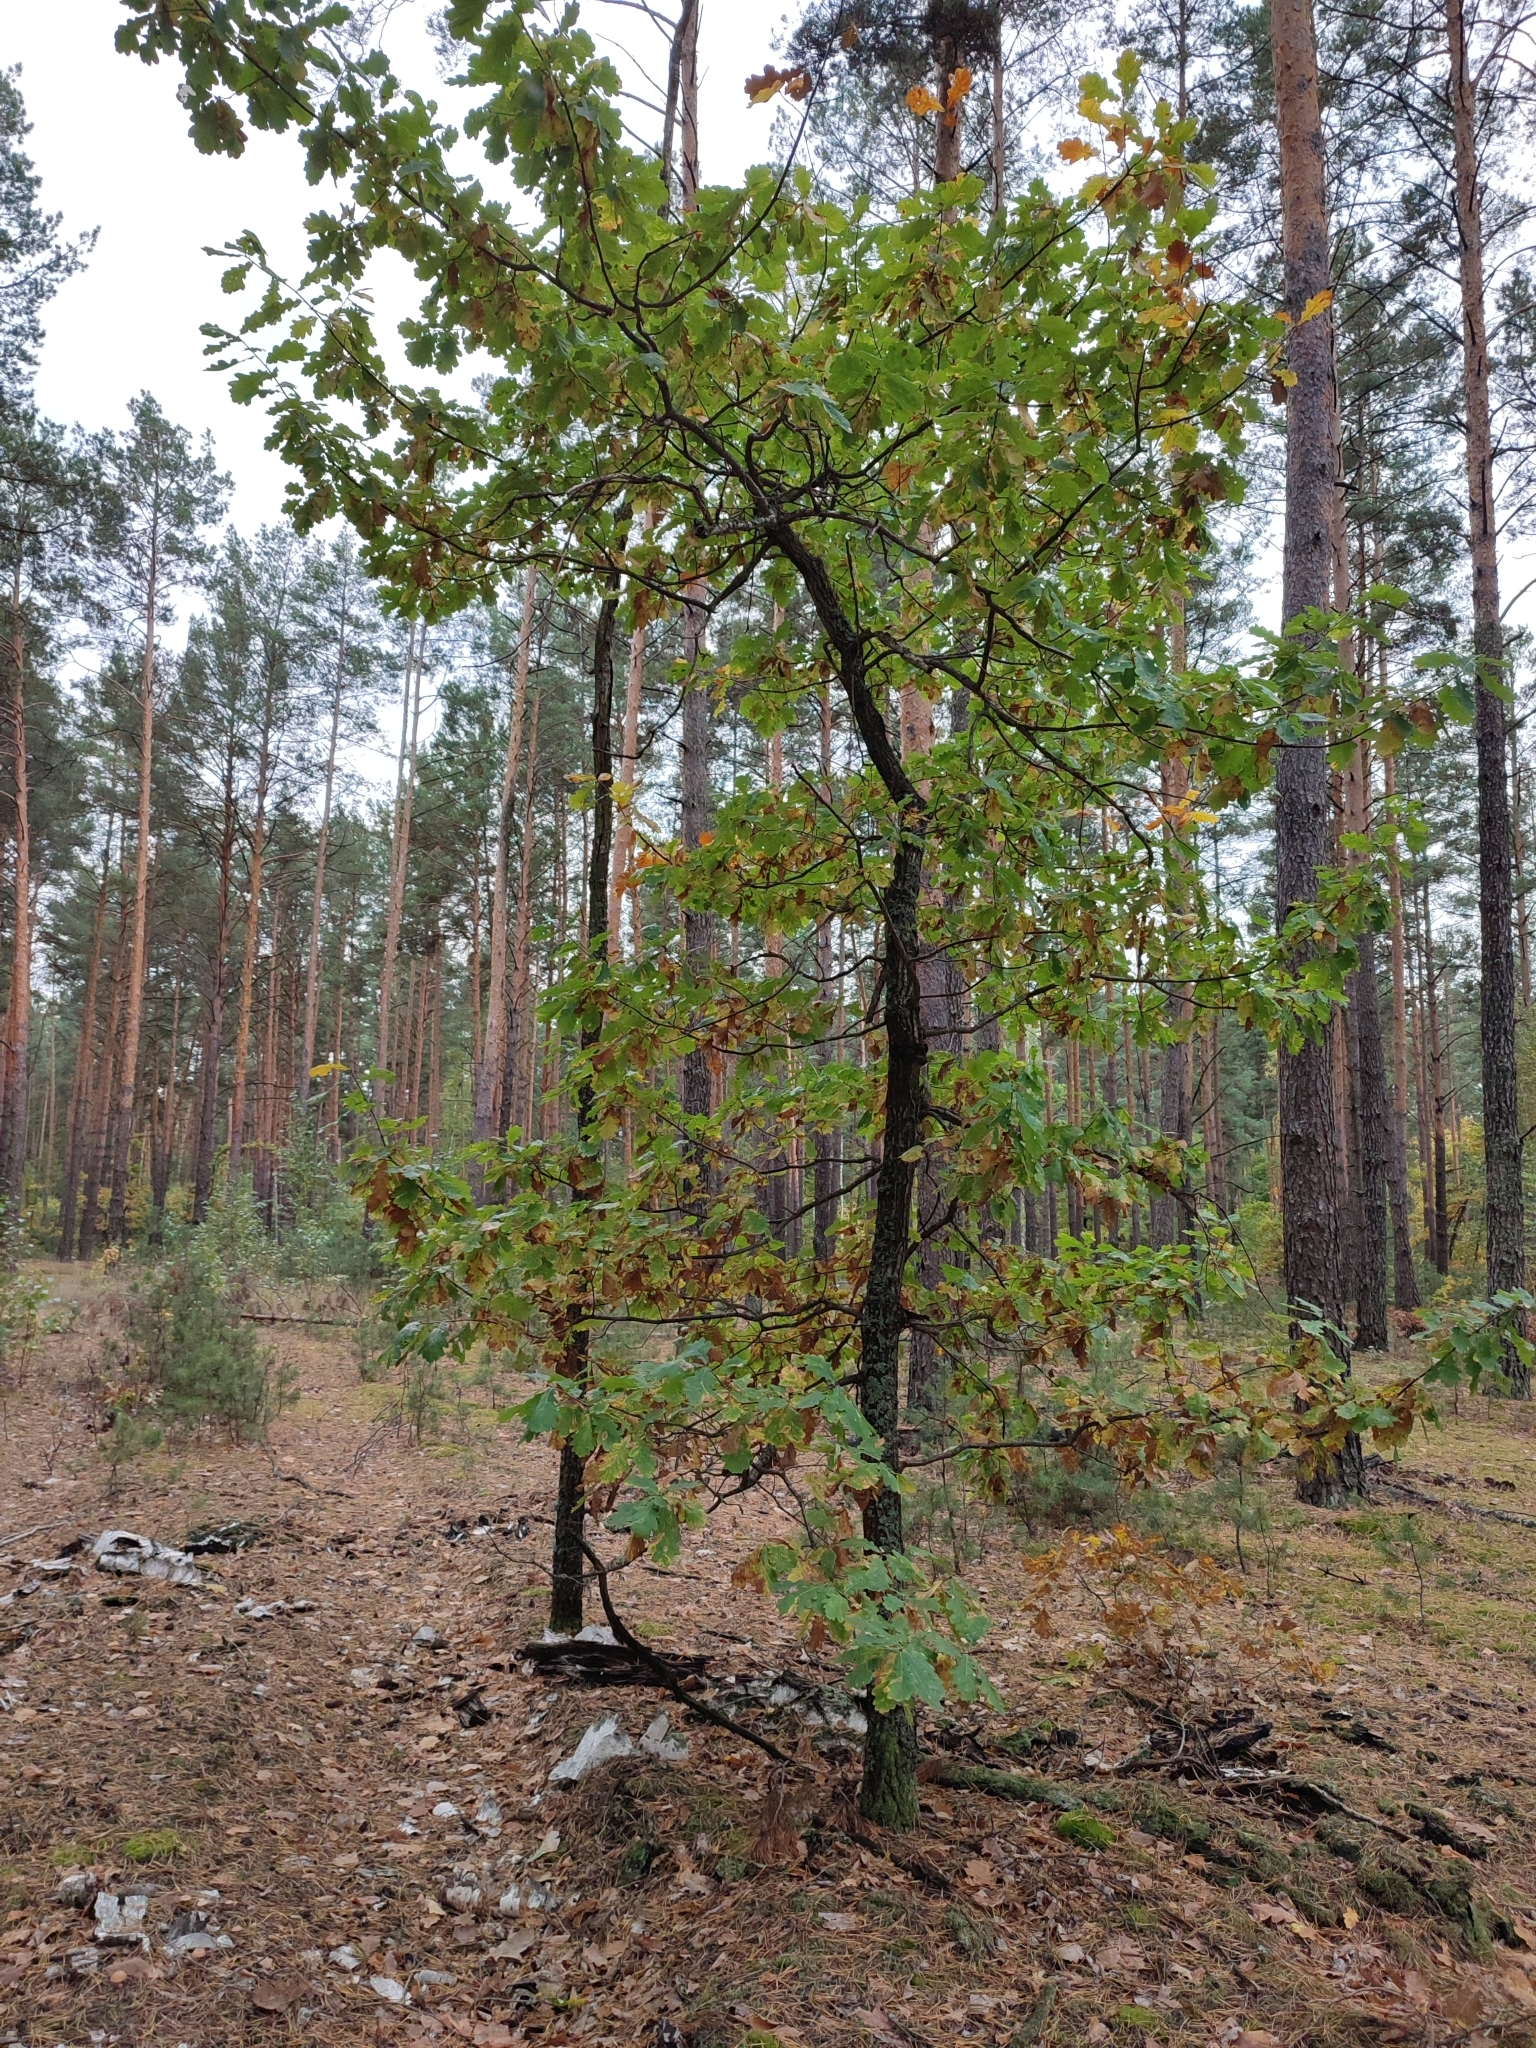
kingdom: Plantae
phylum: Tracheophyta
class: Magnoliopsida
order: Fagales
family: Fagaceae
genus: Quercus
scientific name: Quercus robur
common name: Pedunculate oak
